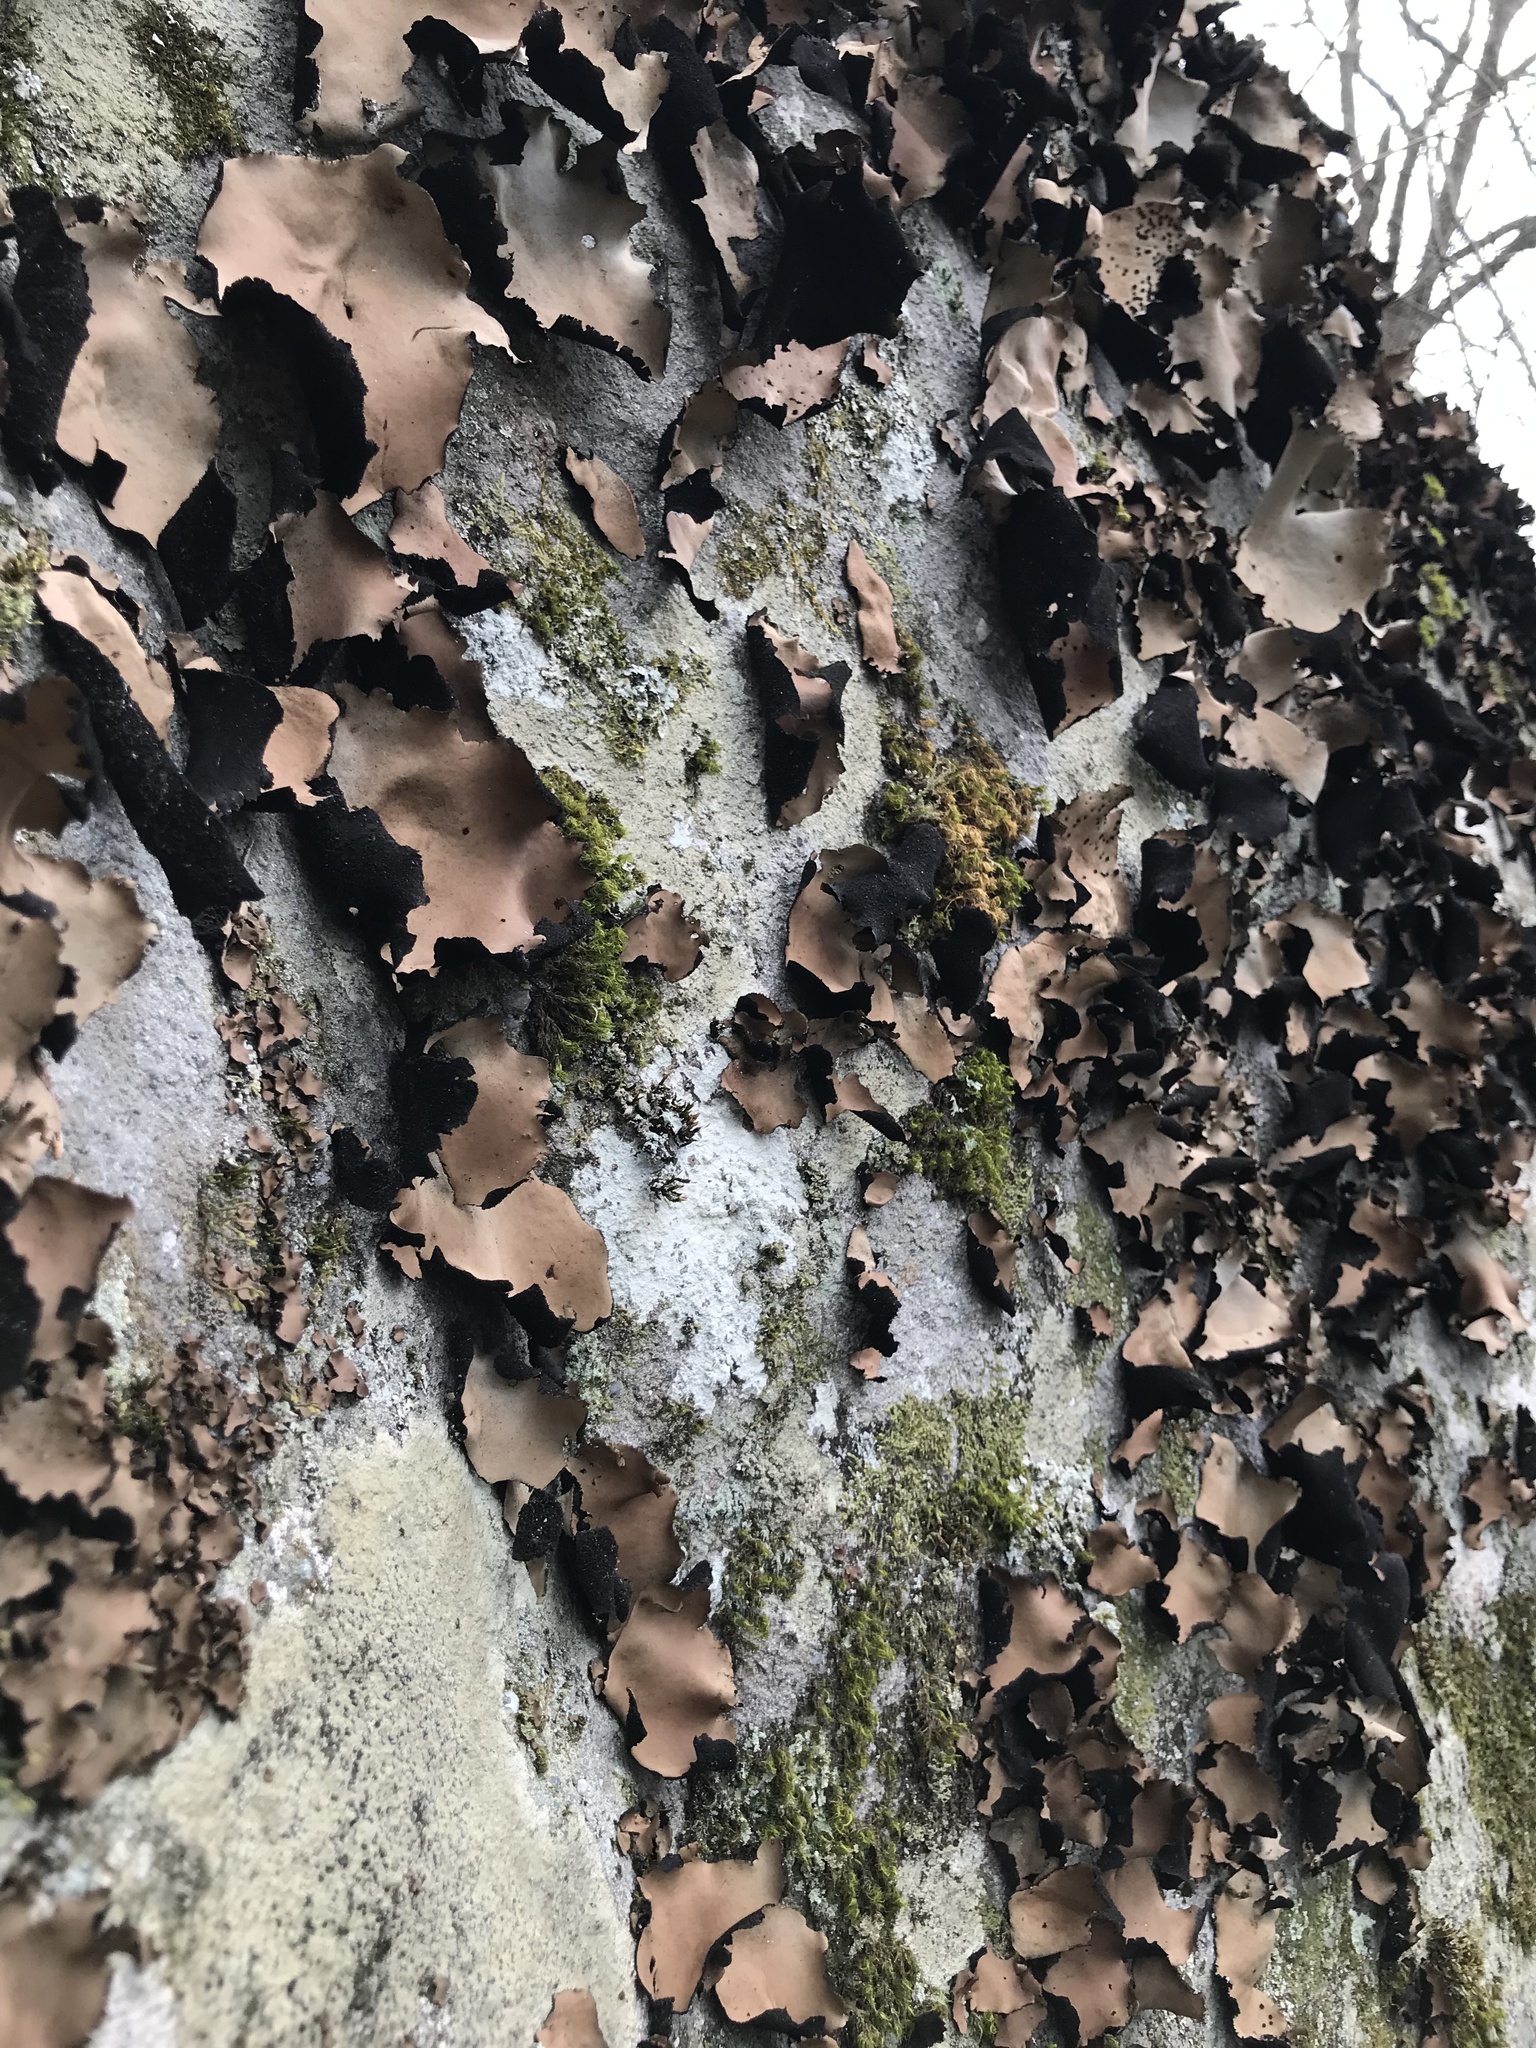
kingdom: Fungi
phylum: Ascomycota
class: Lecanoromycetes
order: Umbilicariales
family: Umbilicariaceae
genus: Umbilicaria
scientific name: Umbilicaria mammulata
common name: Smooth rock tripe
